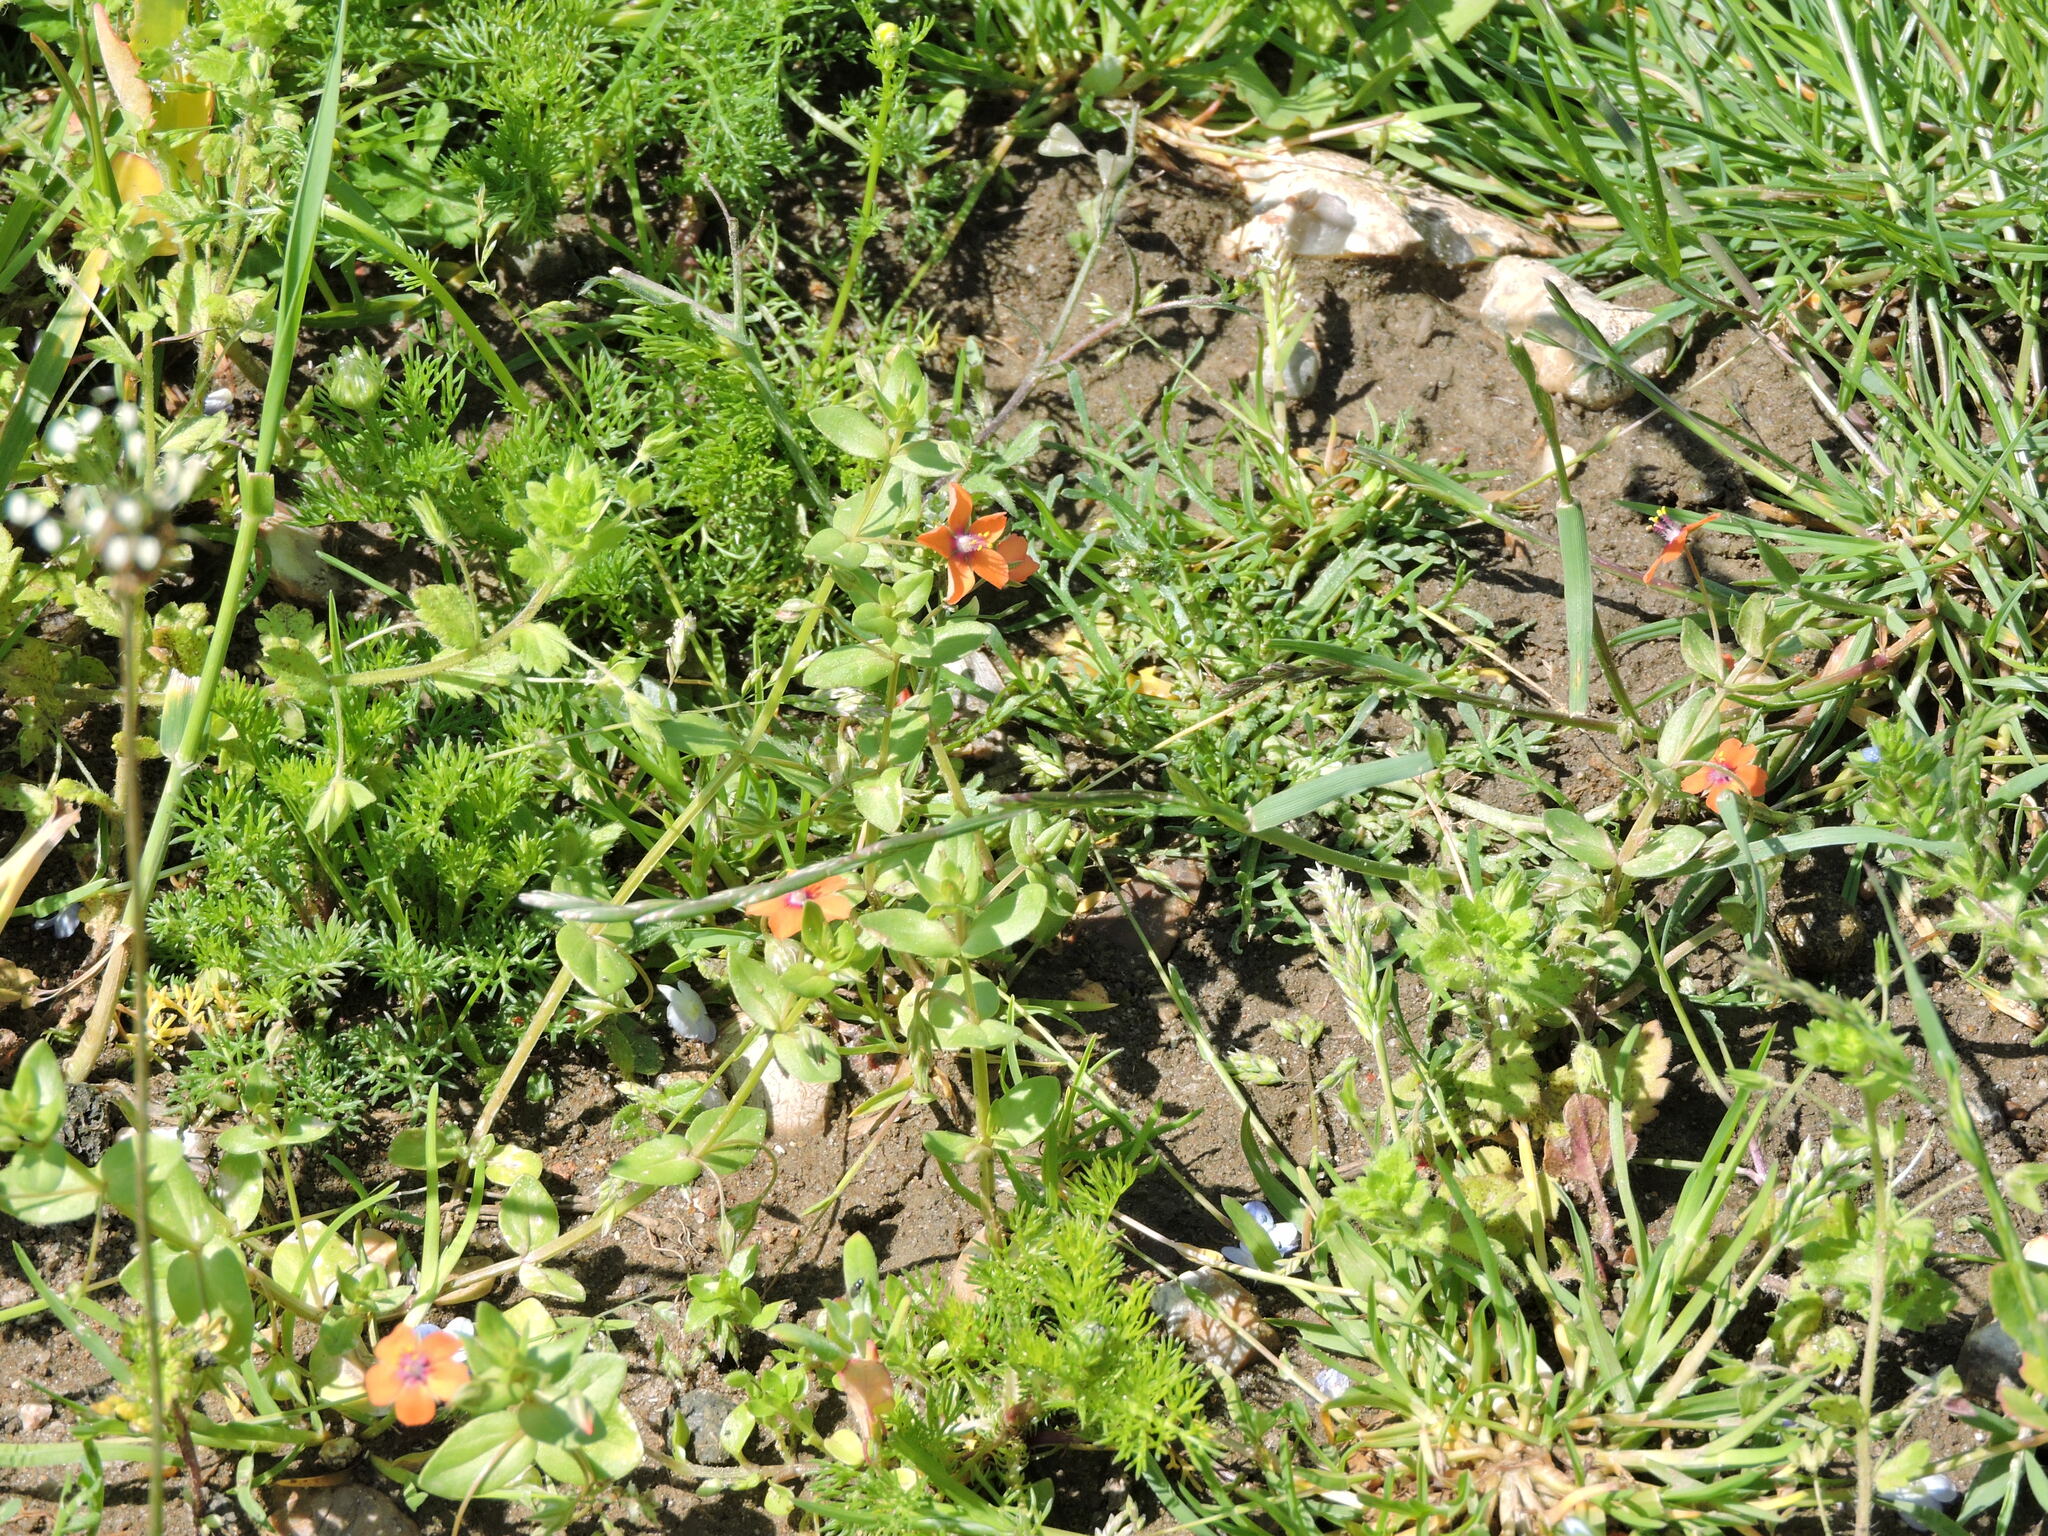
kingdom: Plantae
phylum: Tracheophyta
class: Magnoliopsida
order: Ericales
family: Primulaceae
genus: Lysimachia
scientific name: Lysimachia arvensis
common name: Scarlet pimpernel
